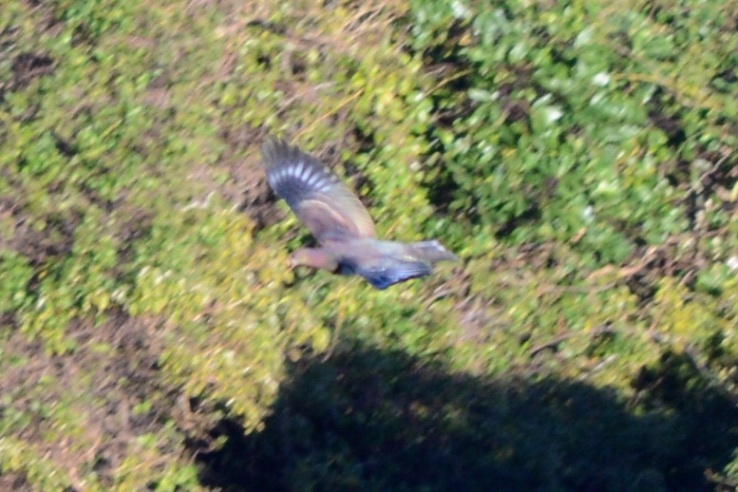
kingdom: Animalia
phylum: Chordata
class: Aves
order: Columbiformes
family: Columbidae
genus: Hemiphaga
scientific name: Hemiphaga novaeseelandiae
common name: New zealand pigeon
